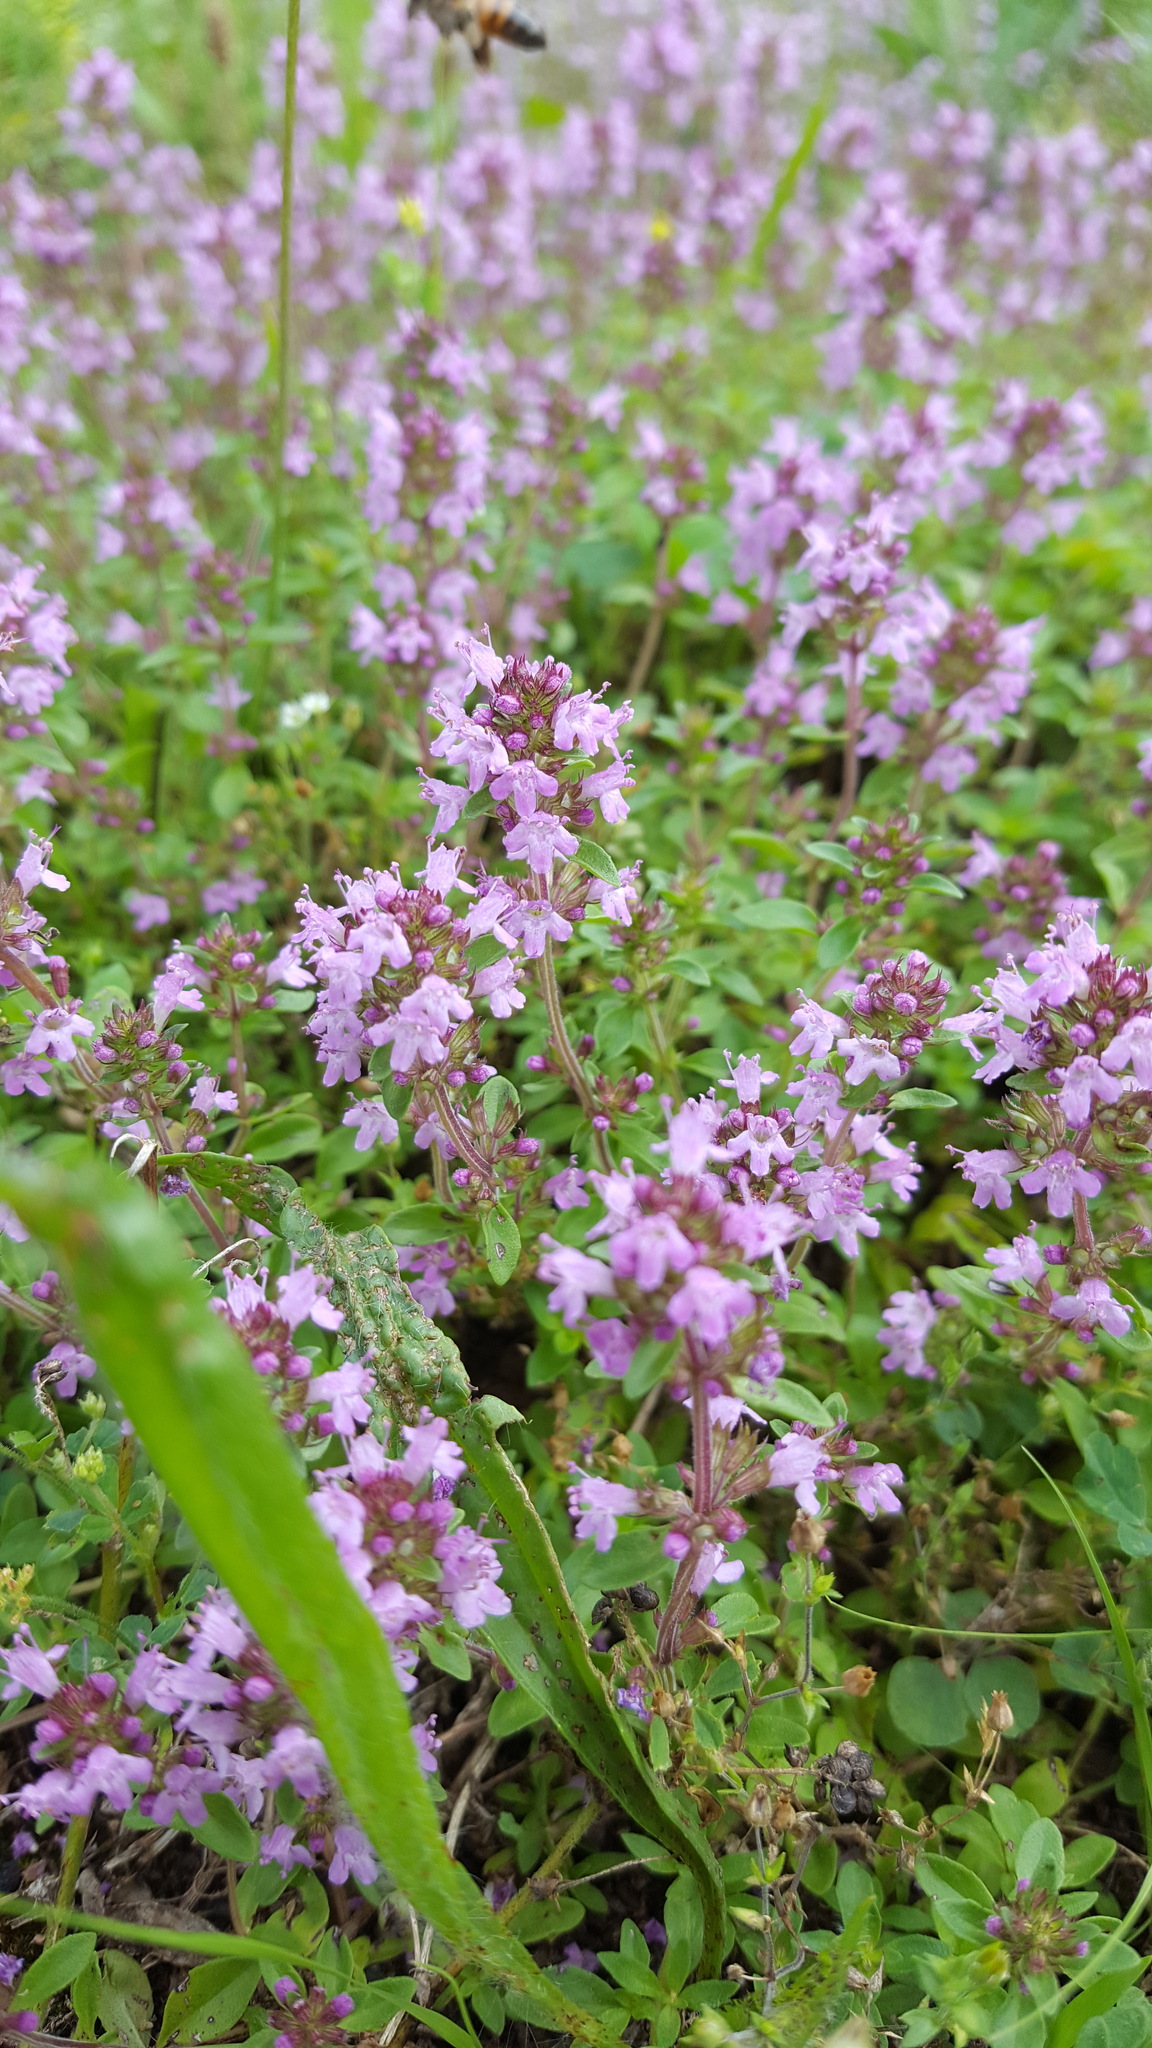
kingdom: Plantae
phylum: Tracheophyta
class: Magnoliopsida
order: Lamiales
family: Lamiaceae
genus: Thymus
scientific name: Thymus pulegioides
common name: Large thyme
